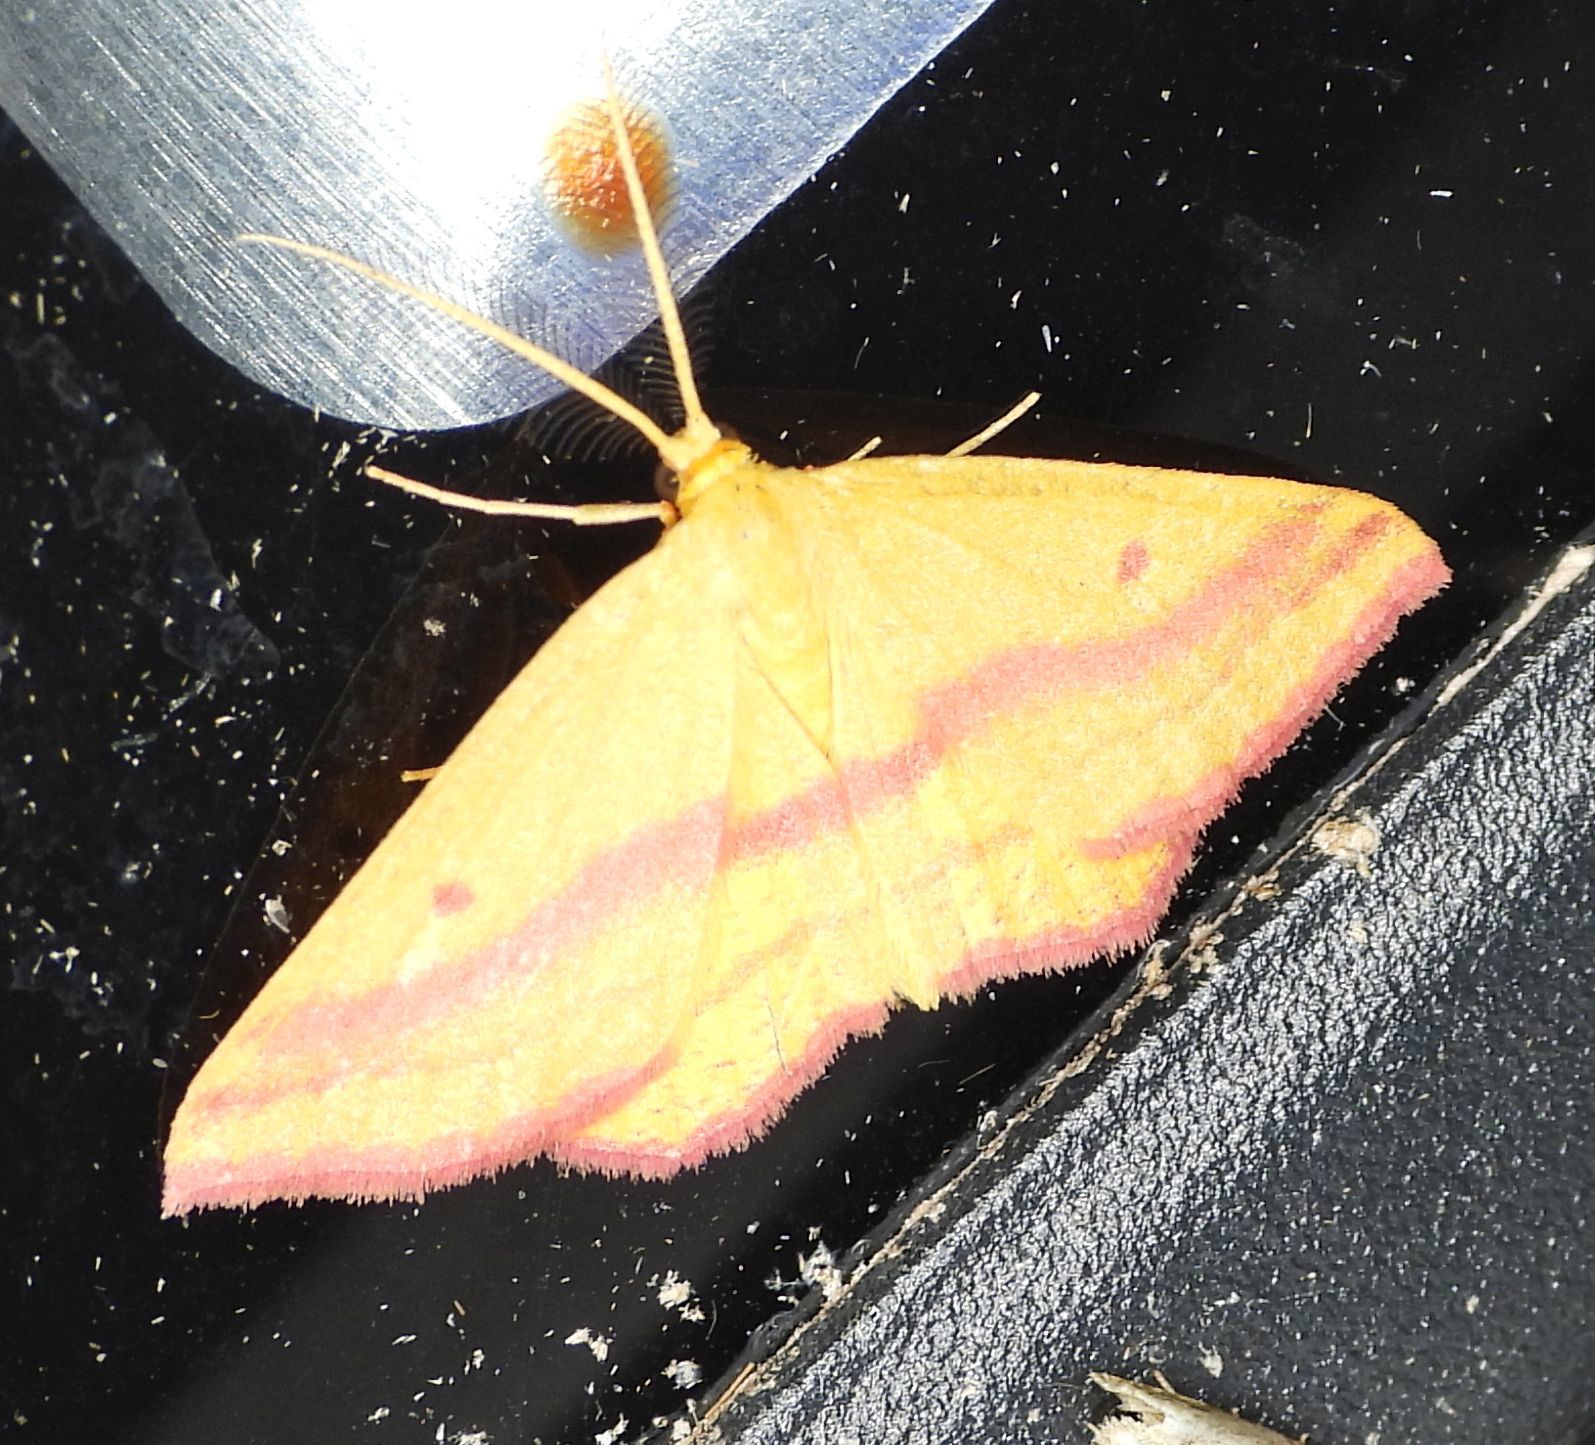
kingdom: Animalia
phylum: Arthropoda
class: Insecta
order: Lepidoptera
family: Geometridae
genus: Haematopis
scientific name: Haematopis grataria
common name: Chickweed geometer
